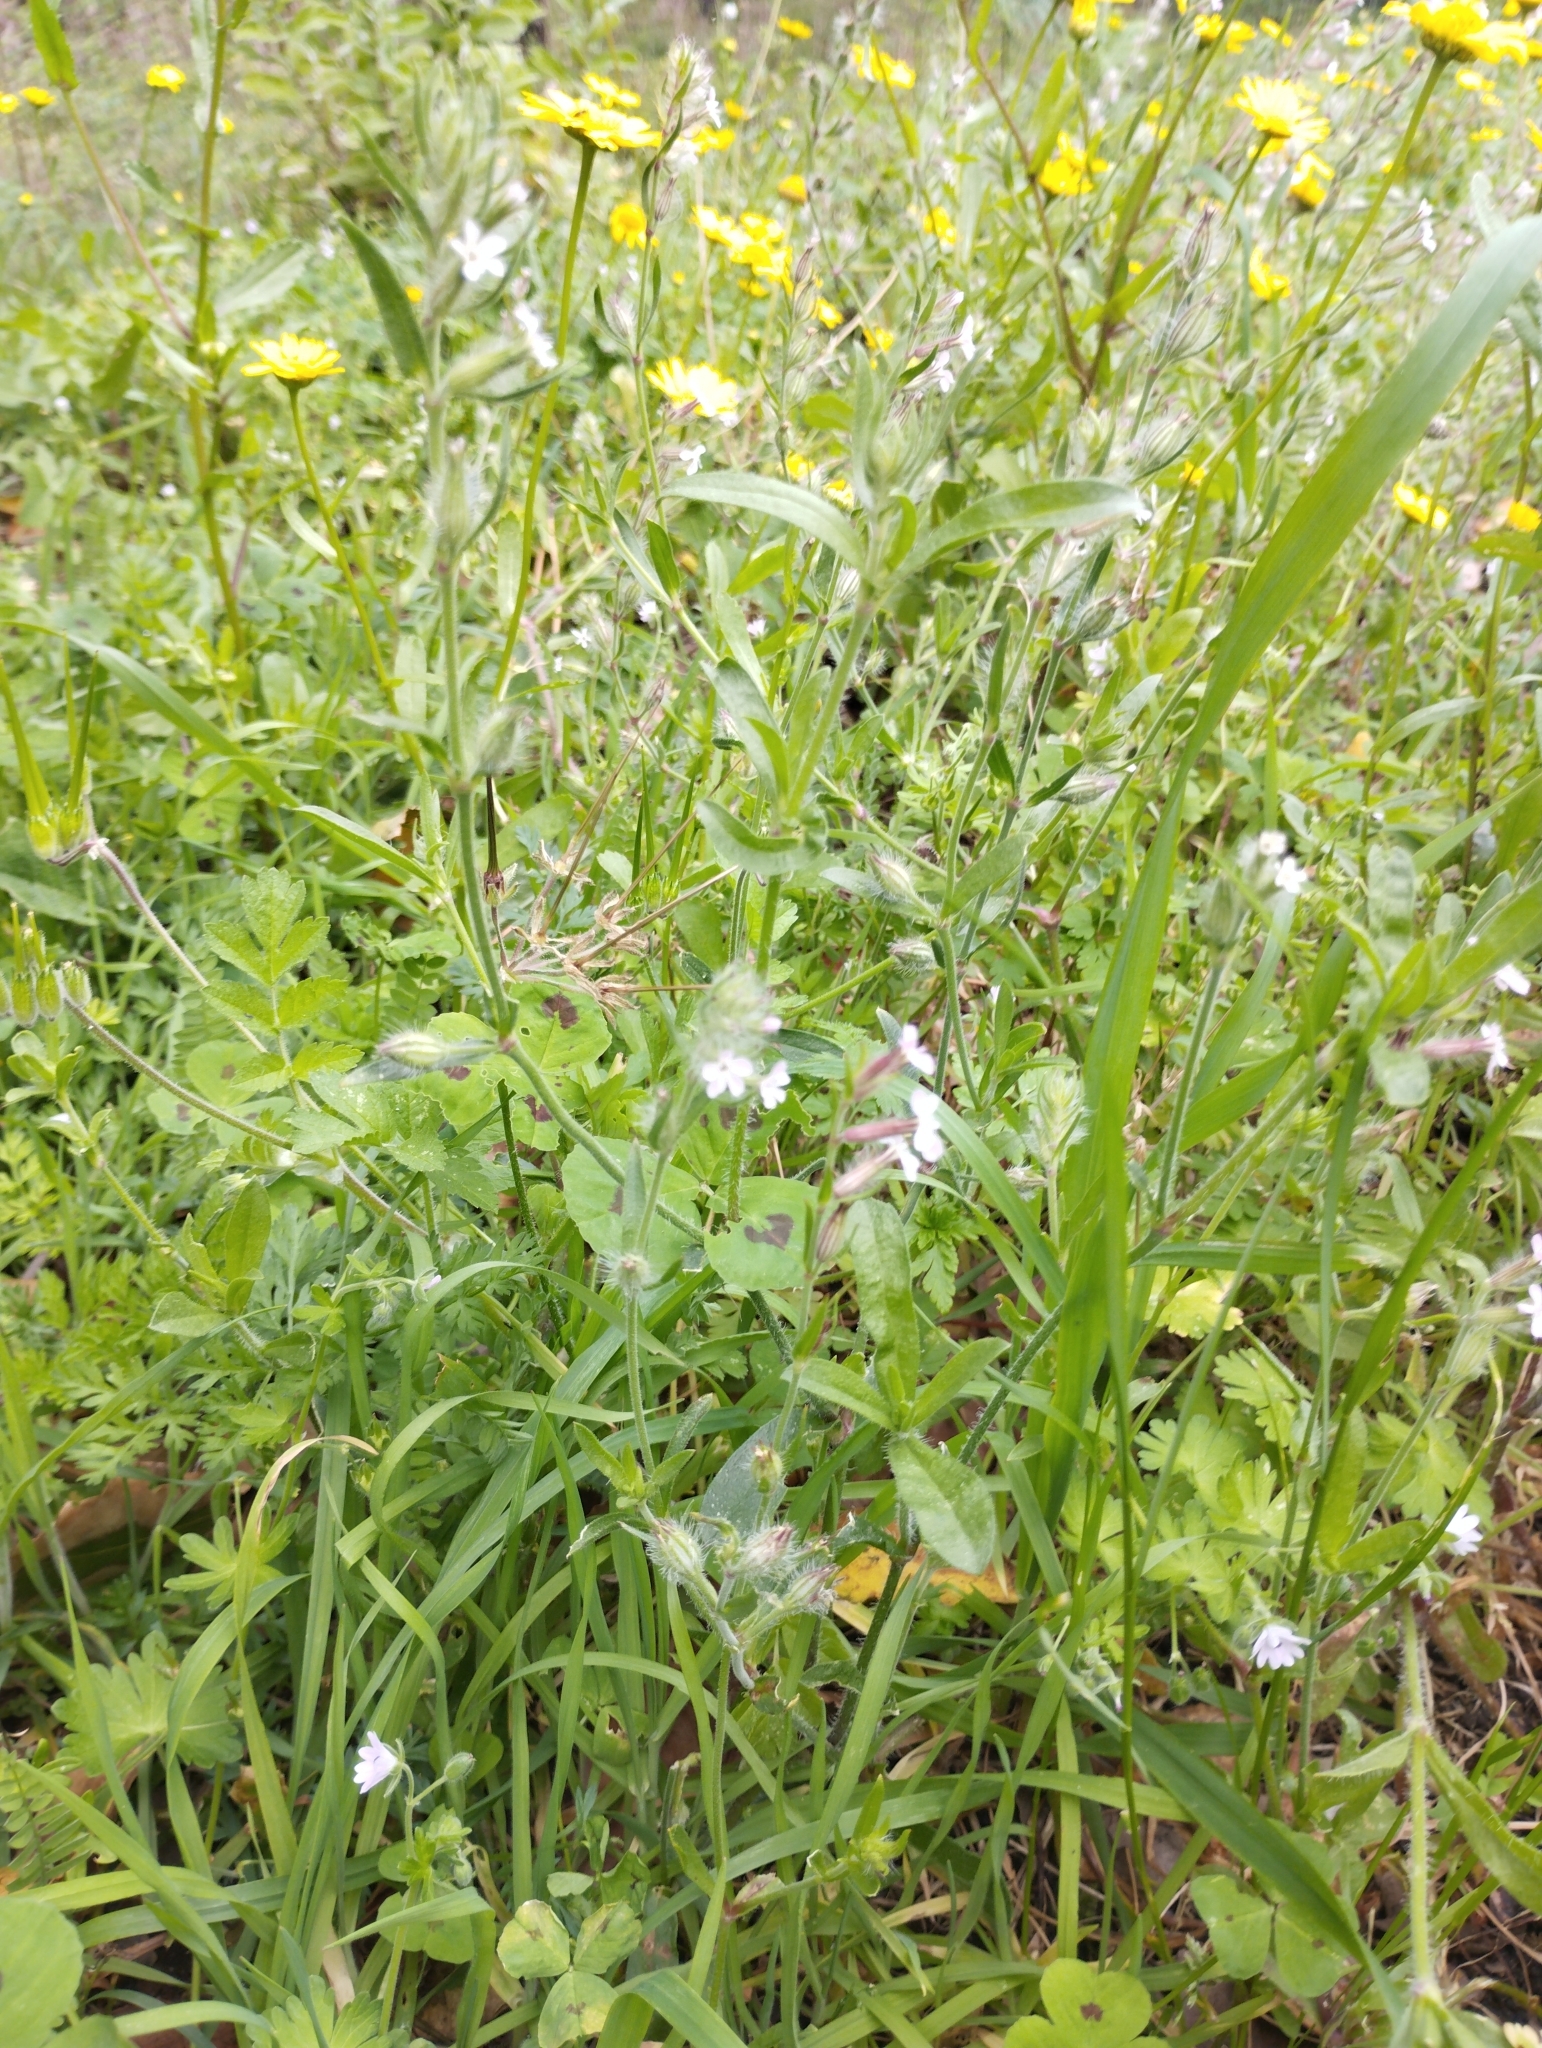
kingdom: Plantae
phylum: Tracheophyta
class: Magnoliopsida
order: Caryophyllales
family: Caryophyllaceae
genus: Silene
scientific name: Silene gallica
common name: Small-flowered catchfly
